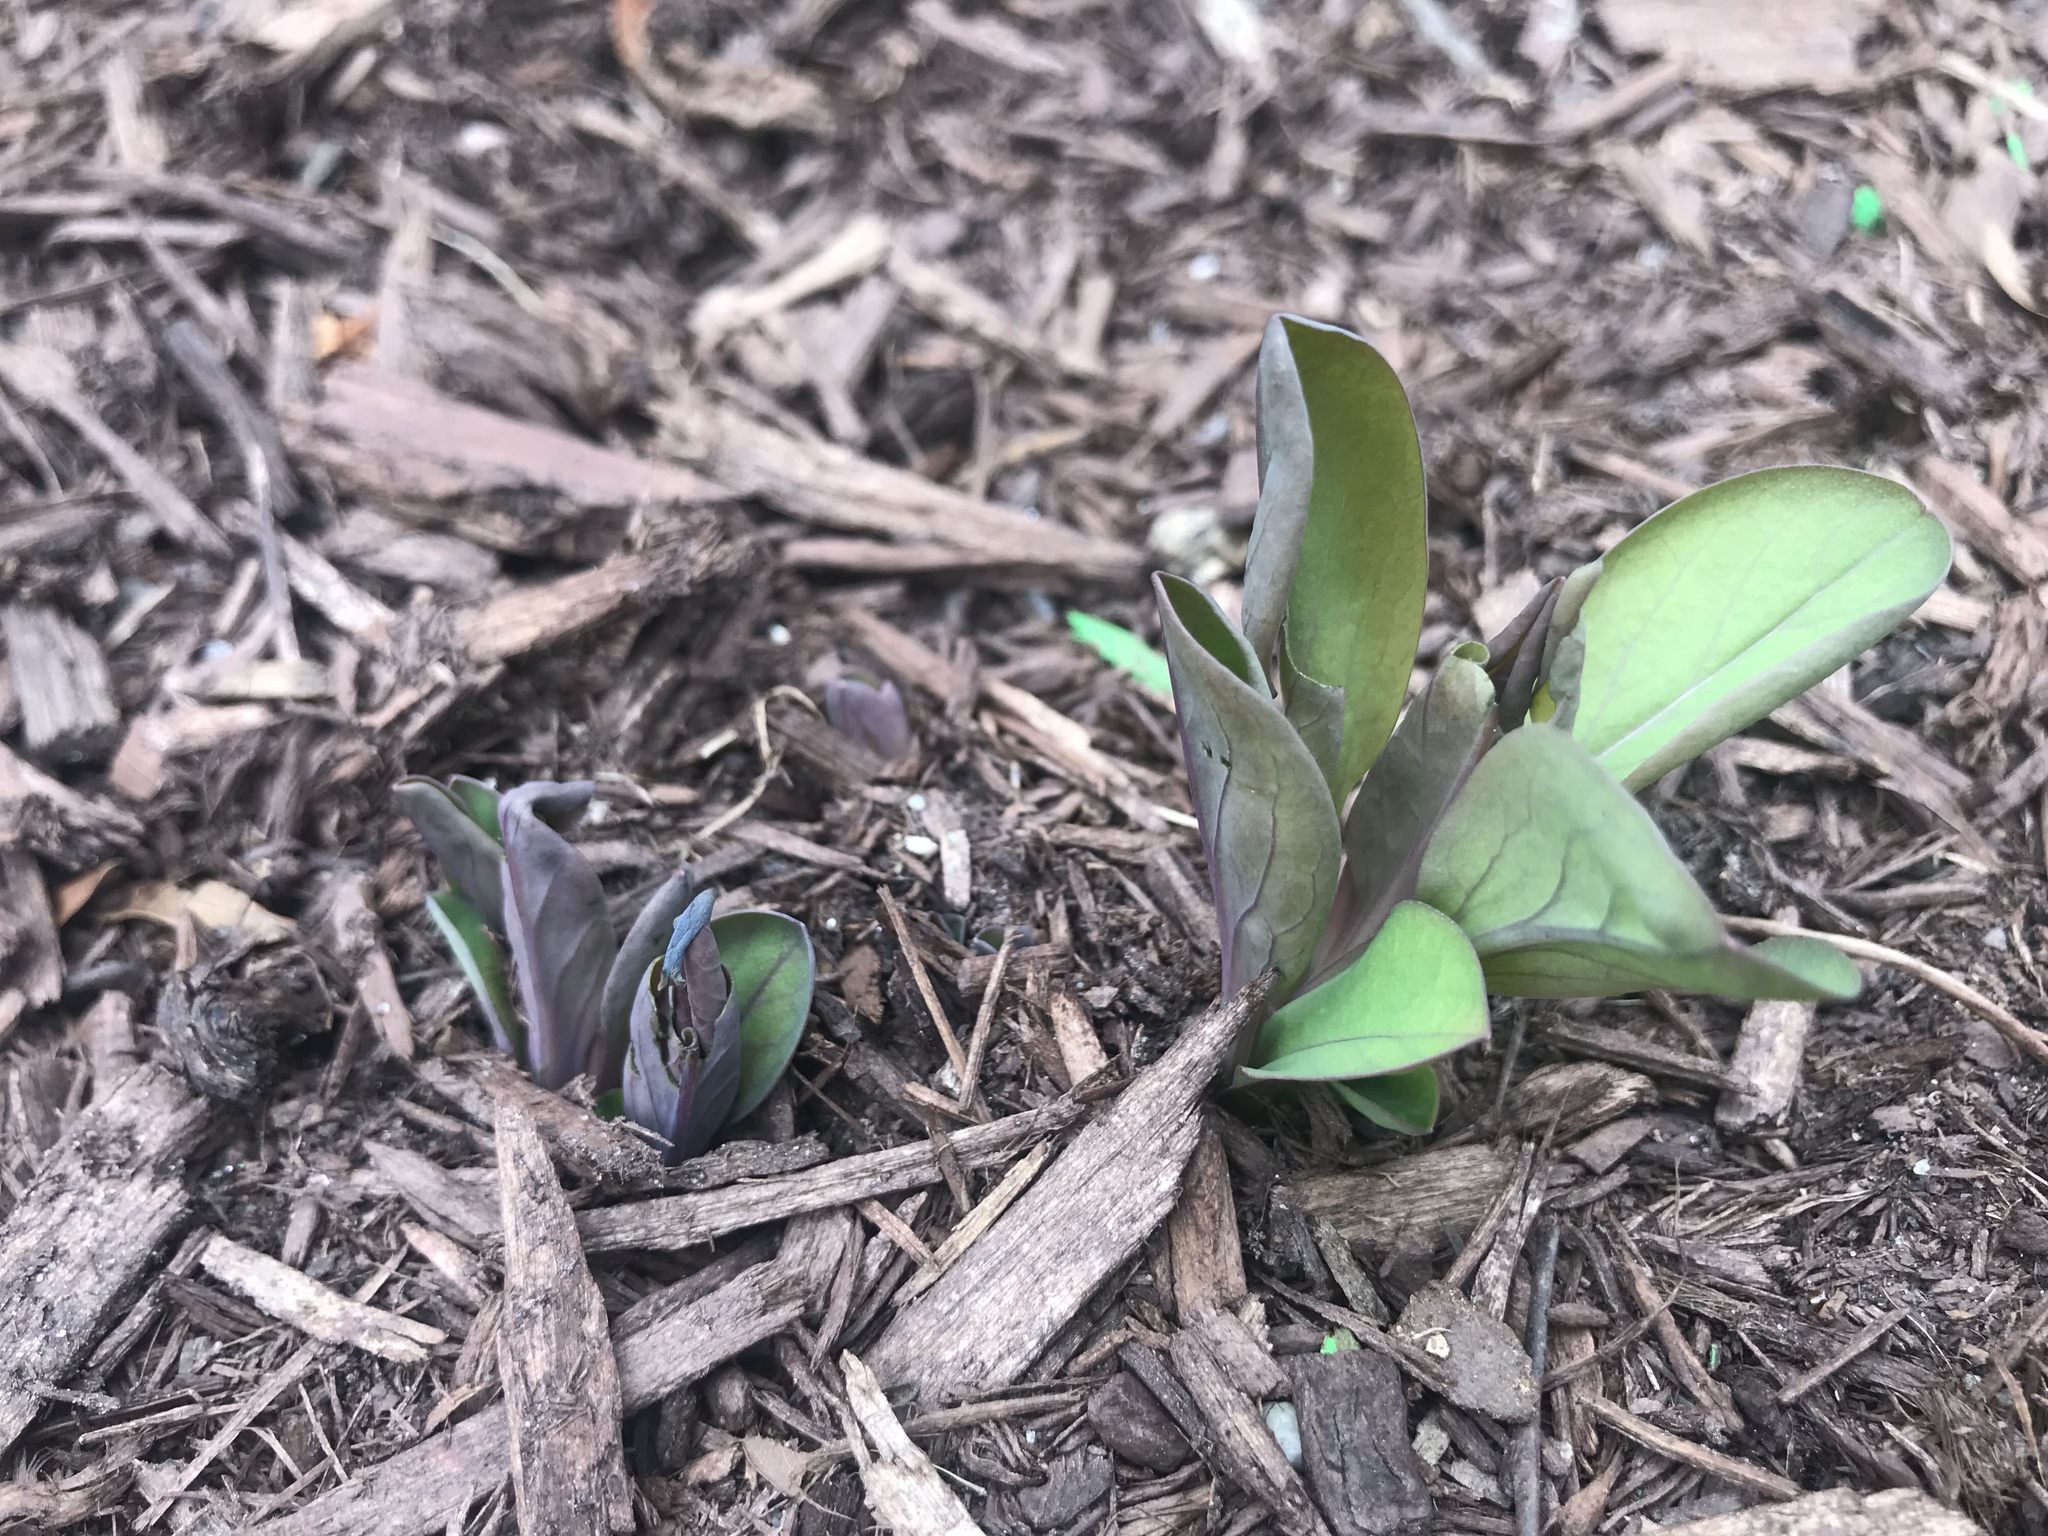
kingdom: Plantae
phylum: Tracheophyta
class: Magnoliopsida
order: Boraginales
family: Boraginaceae
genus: Mertensia
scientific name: Mertensia virginica
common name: Virginia bluebells
